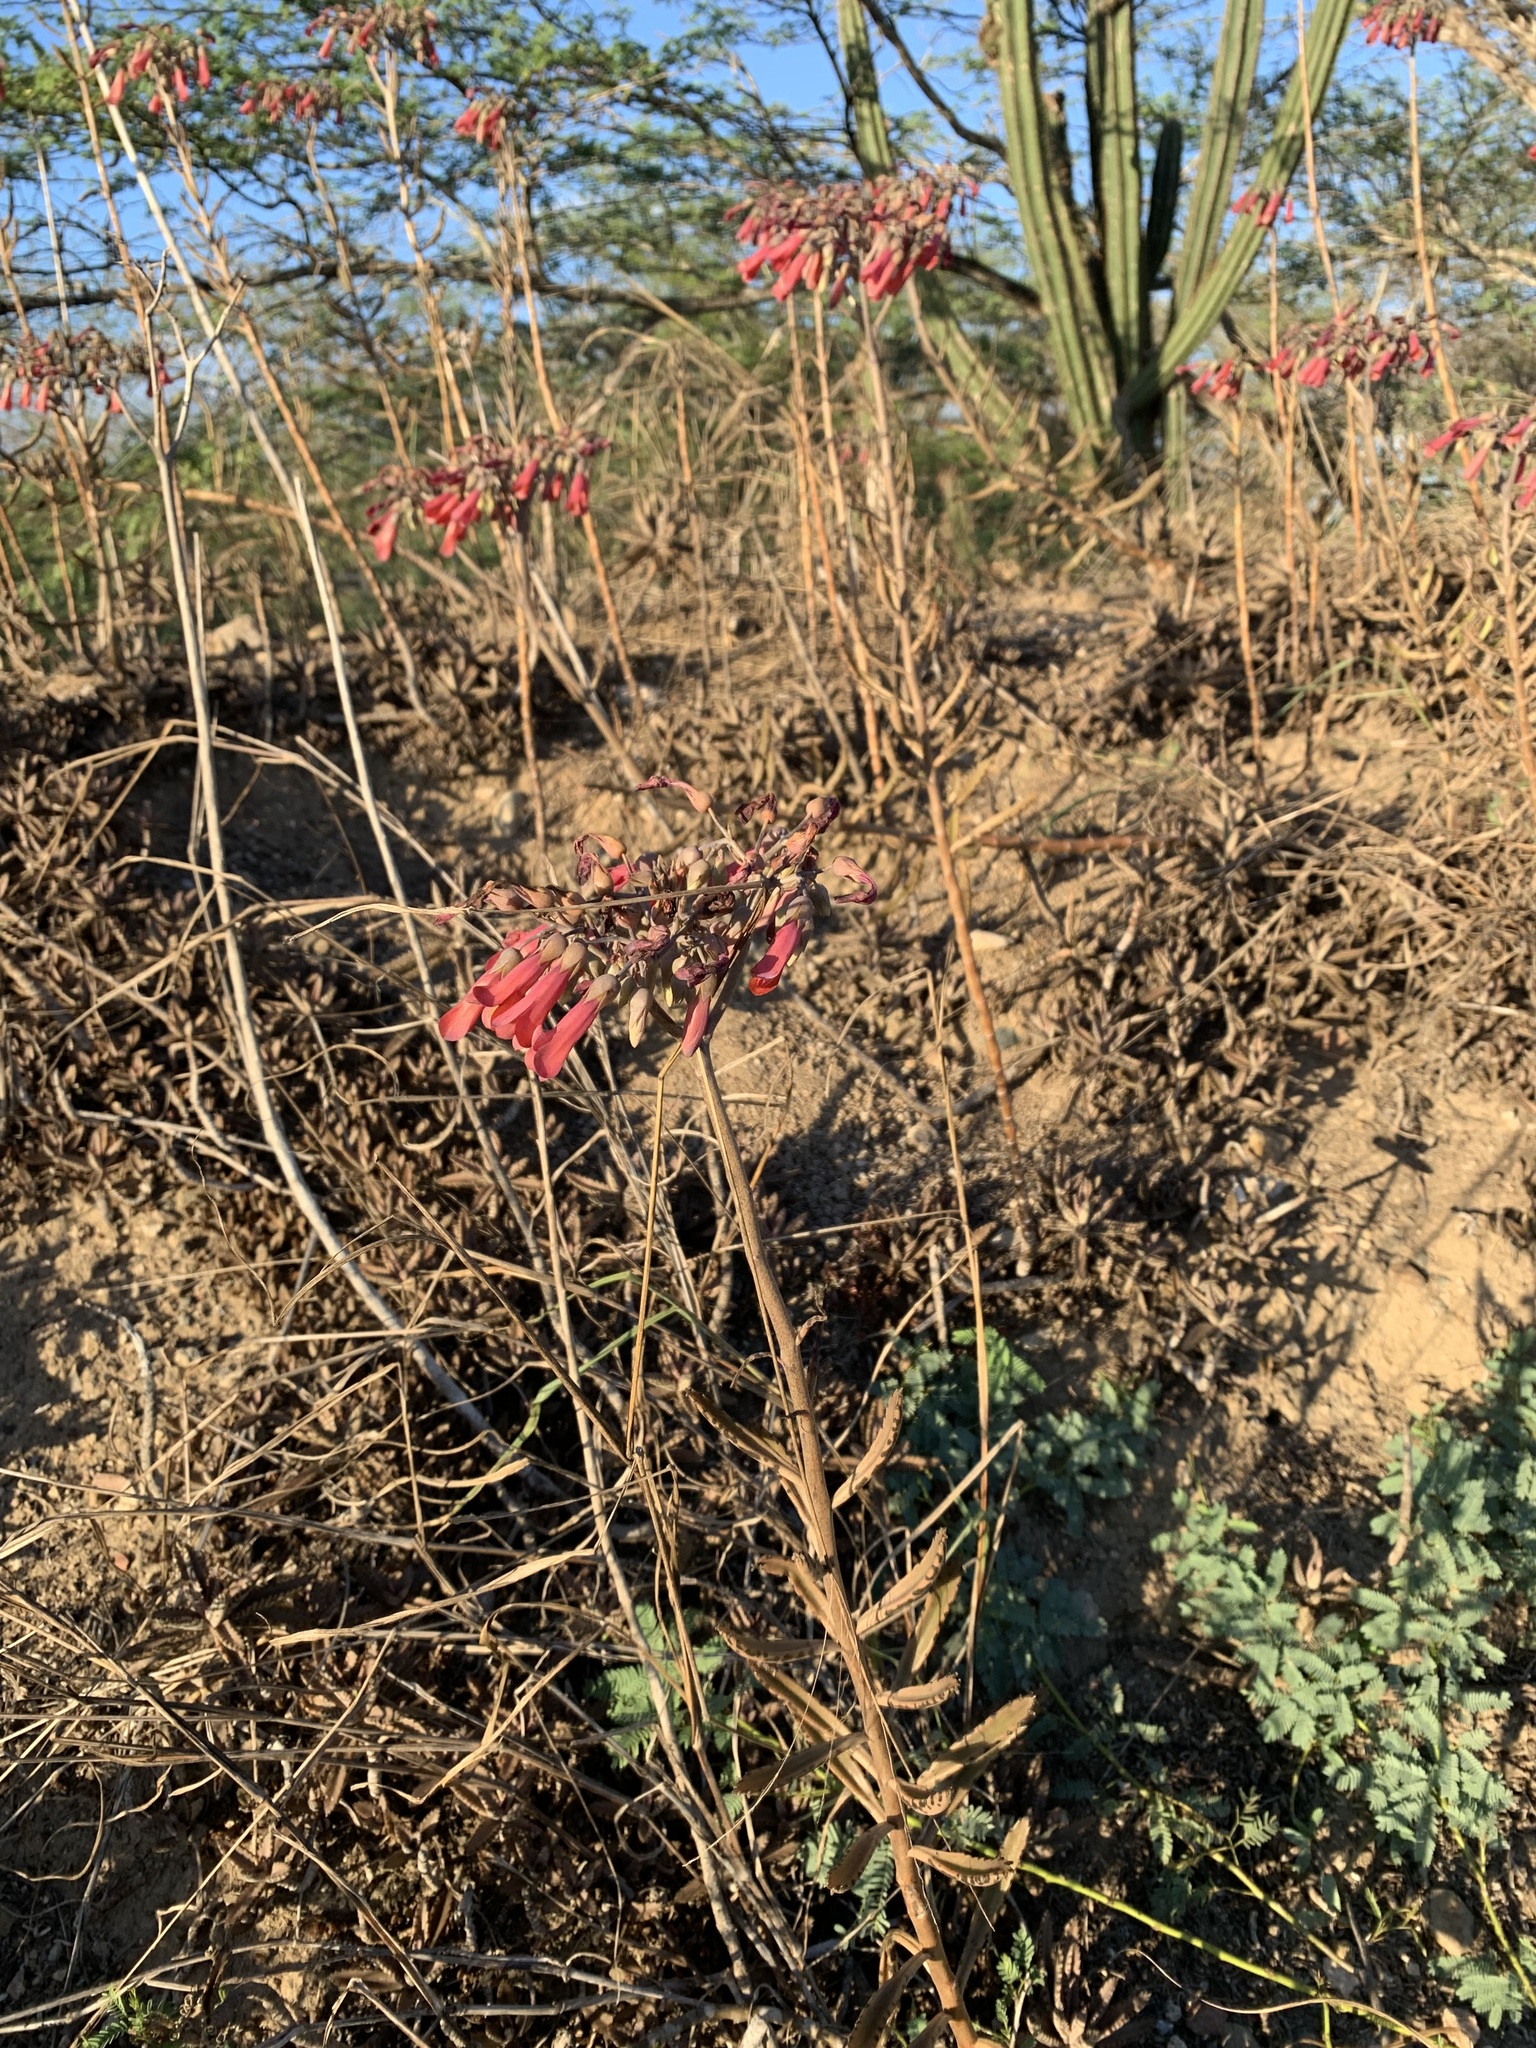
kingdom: Plantae
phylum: Tracheophyta
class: Magnoliopsida
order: Saxifragales
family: Crassulaceae
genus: Kalanchoe
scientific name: Kalanchoe houghtonii
